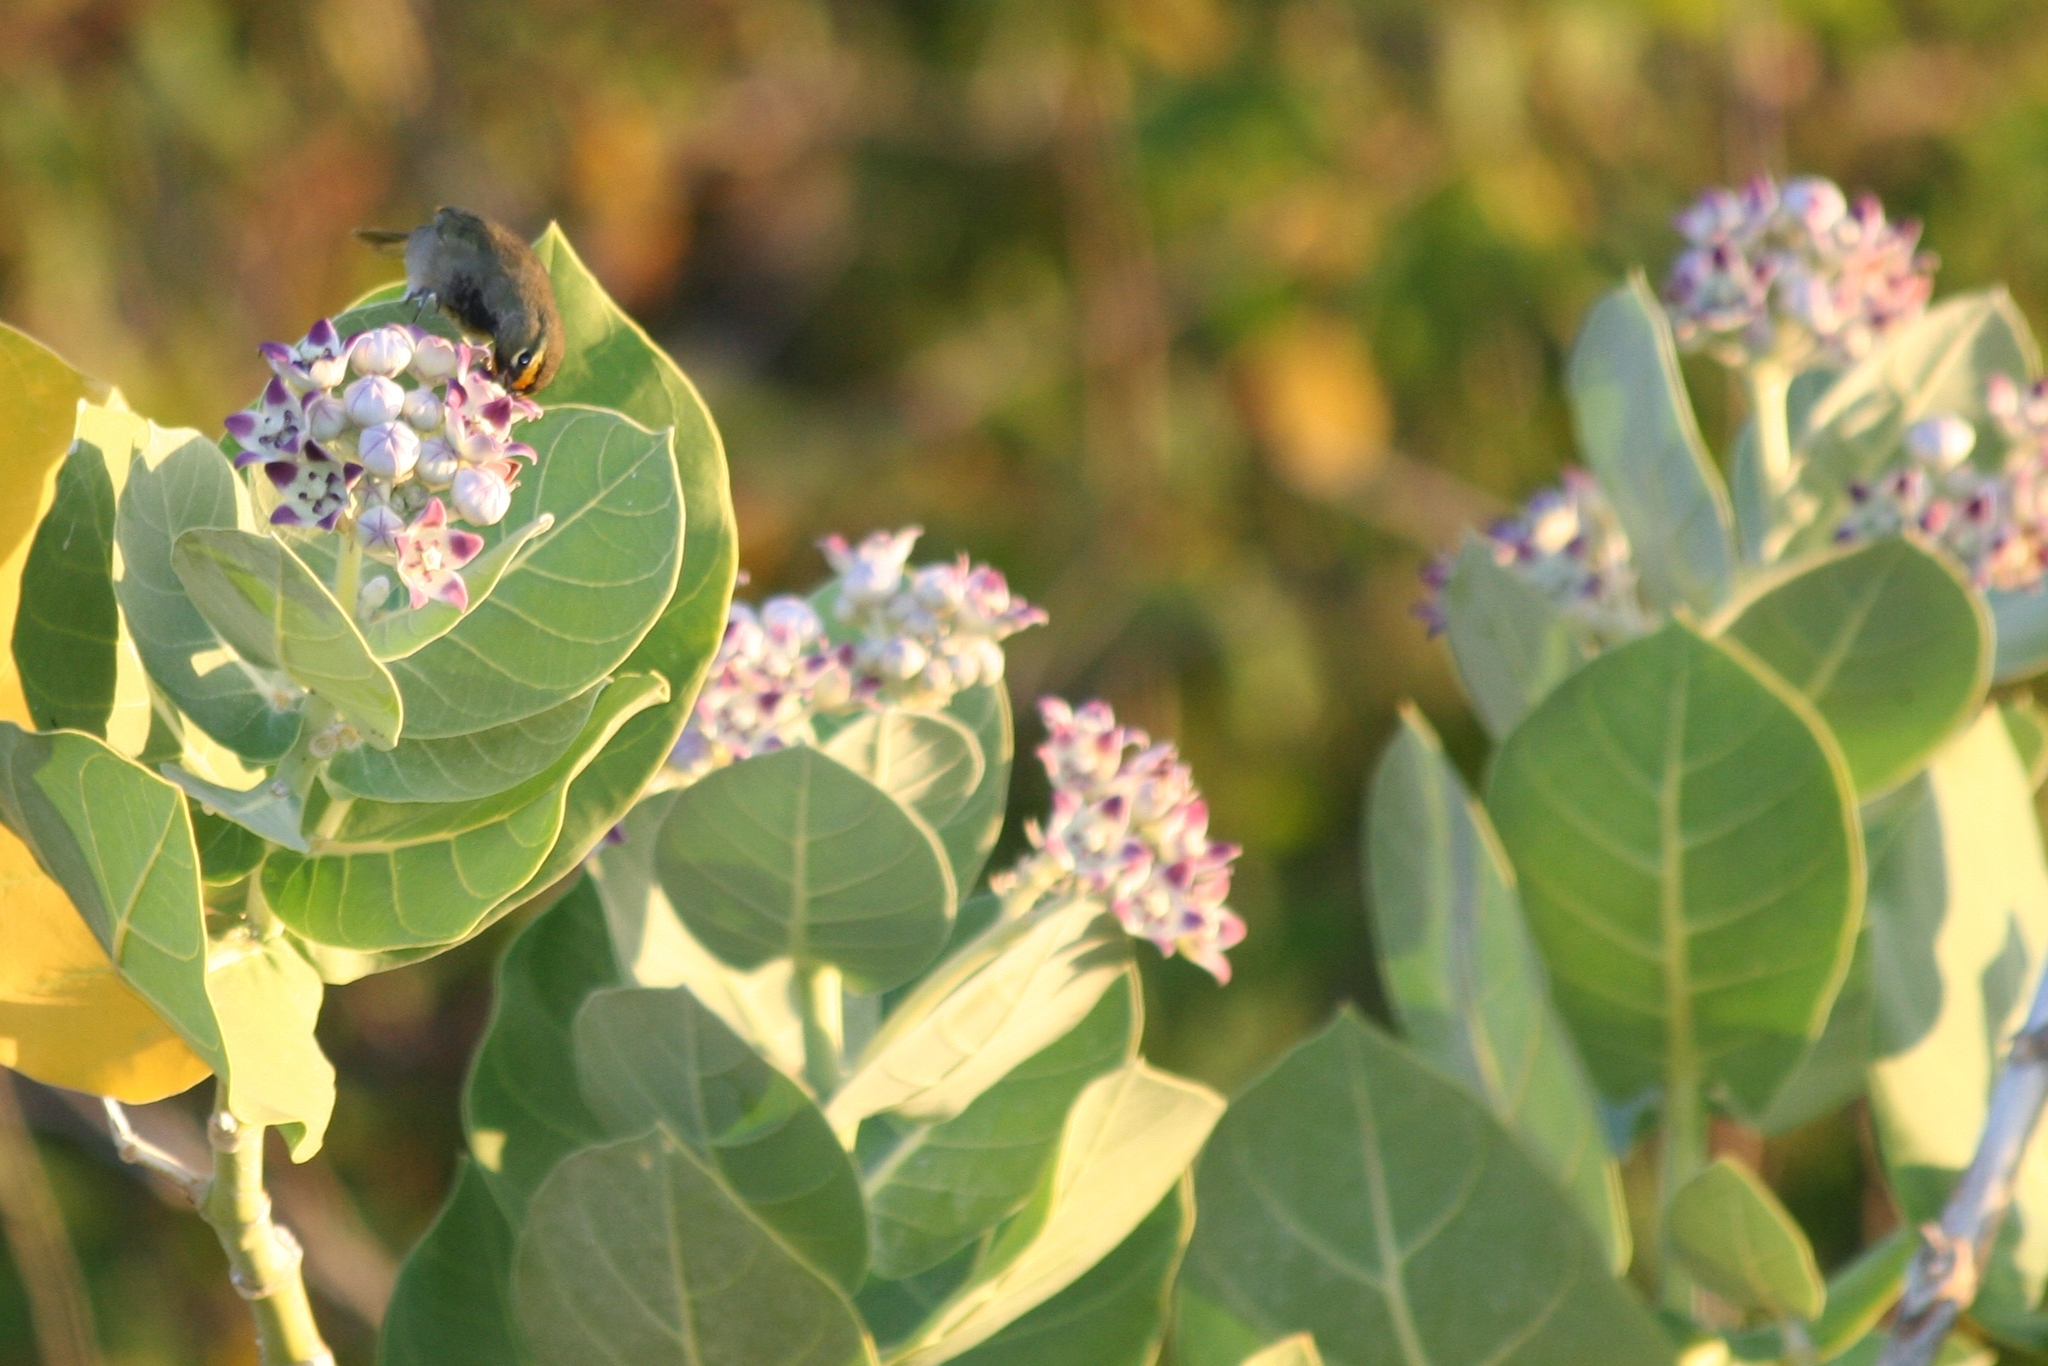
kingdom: Animalia
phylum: Chordata
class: Aves
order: Passeriformes
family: Thraupidae
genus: Tiaris
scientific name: Tiaris olivaceus
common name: Yellow-faced grassquit
